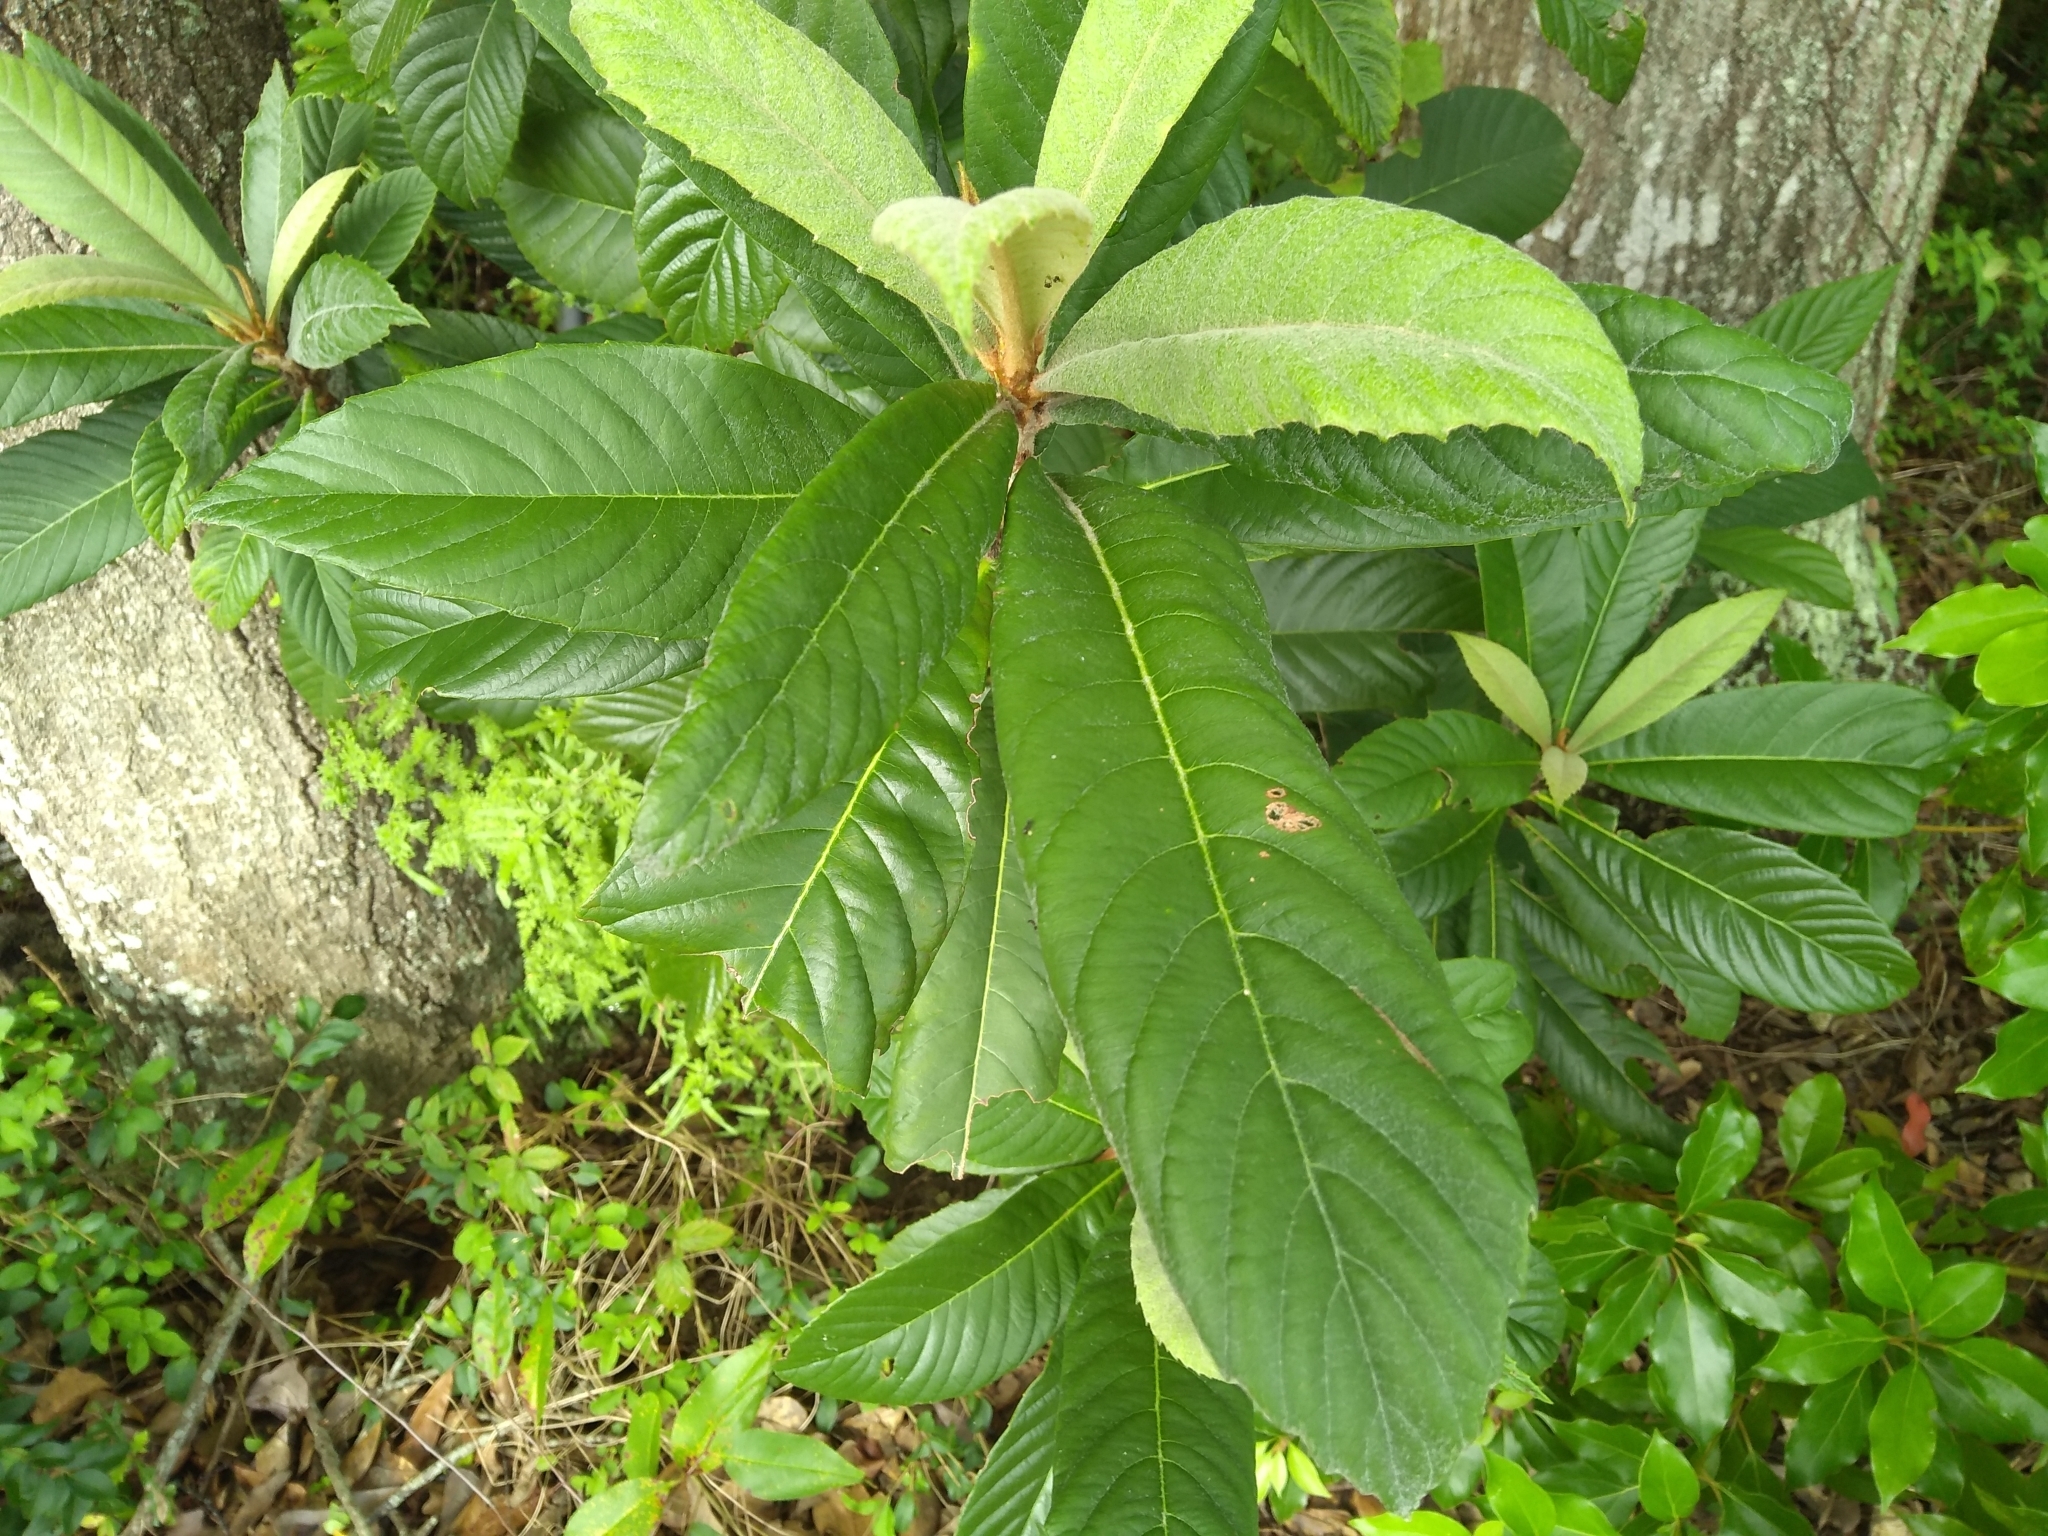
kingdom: Plantae
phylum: Tracheophyta
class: Magnoliopsida
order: Rosales
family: Rosaceae
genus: Rhaphiolepis
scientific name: Rhaphiolepis bibas
